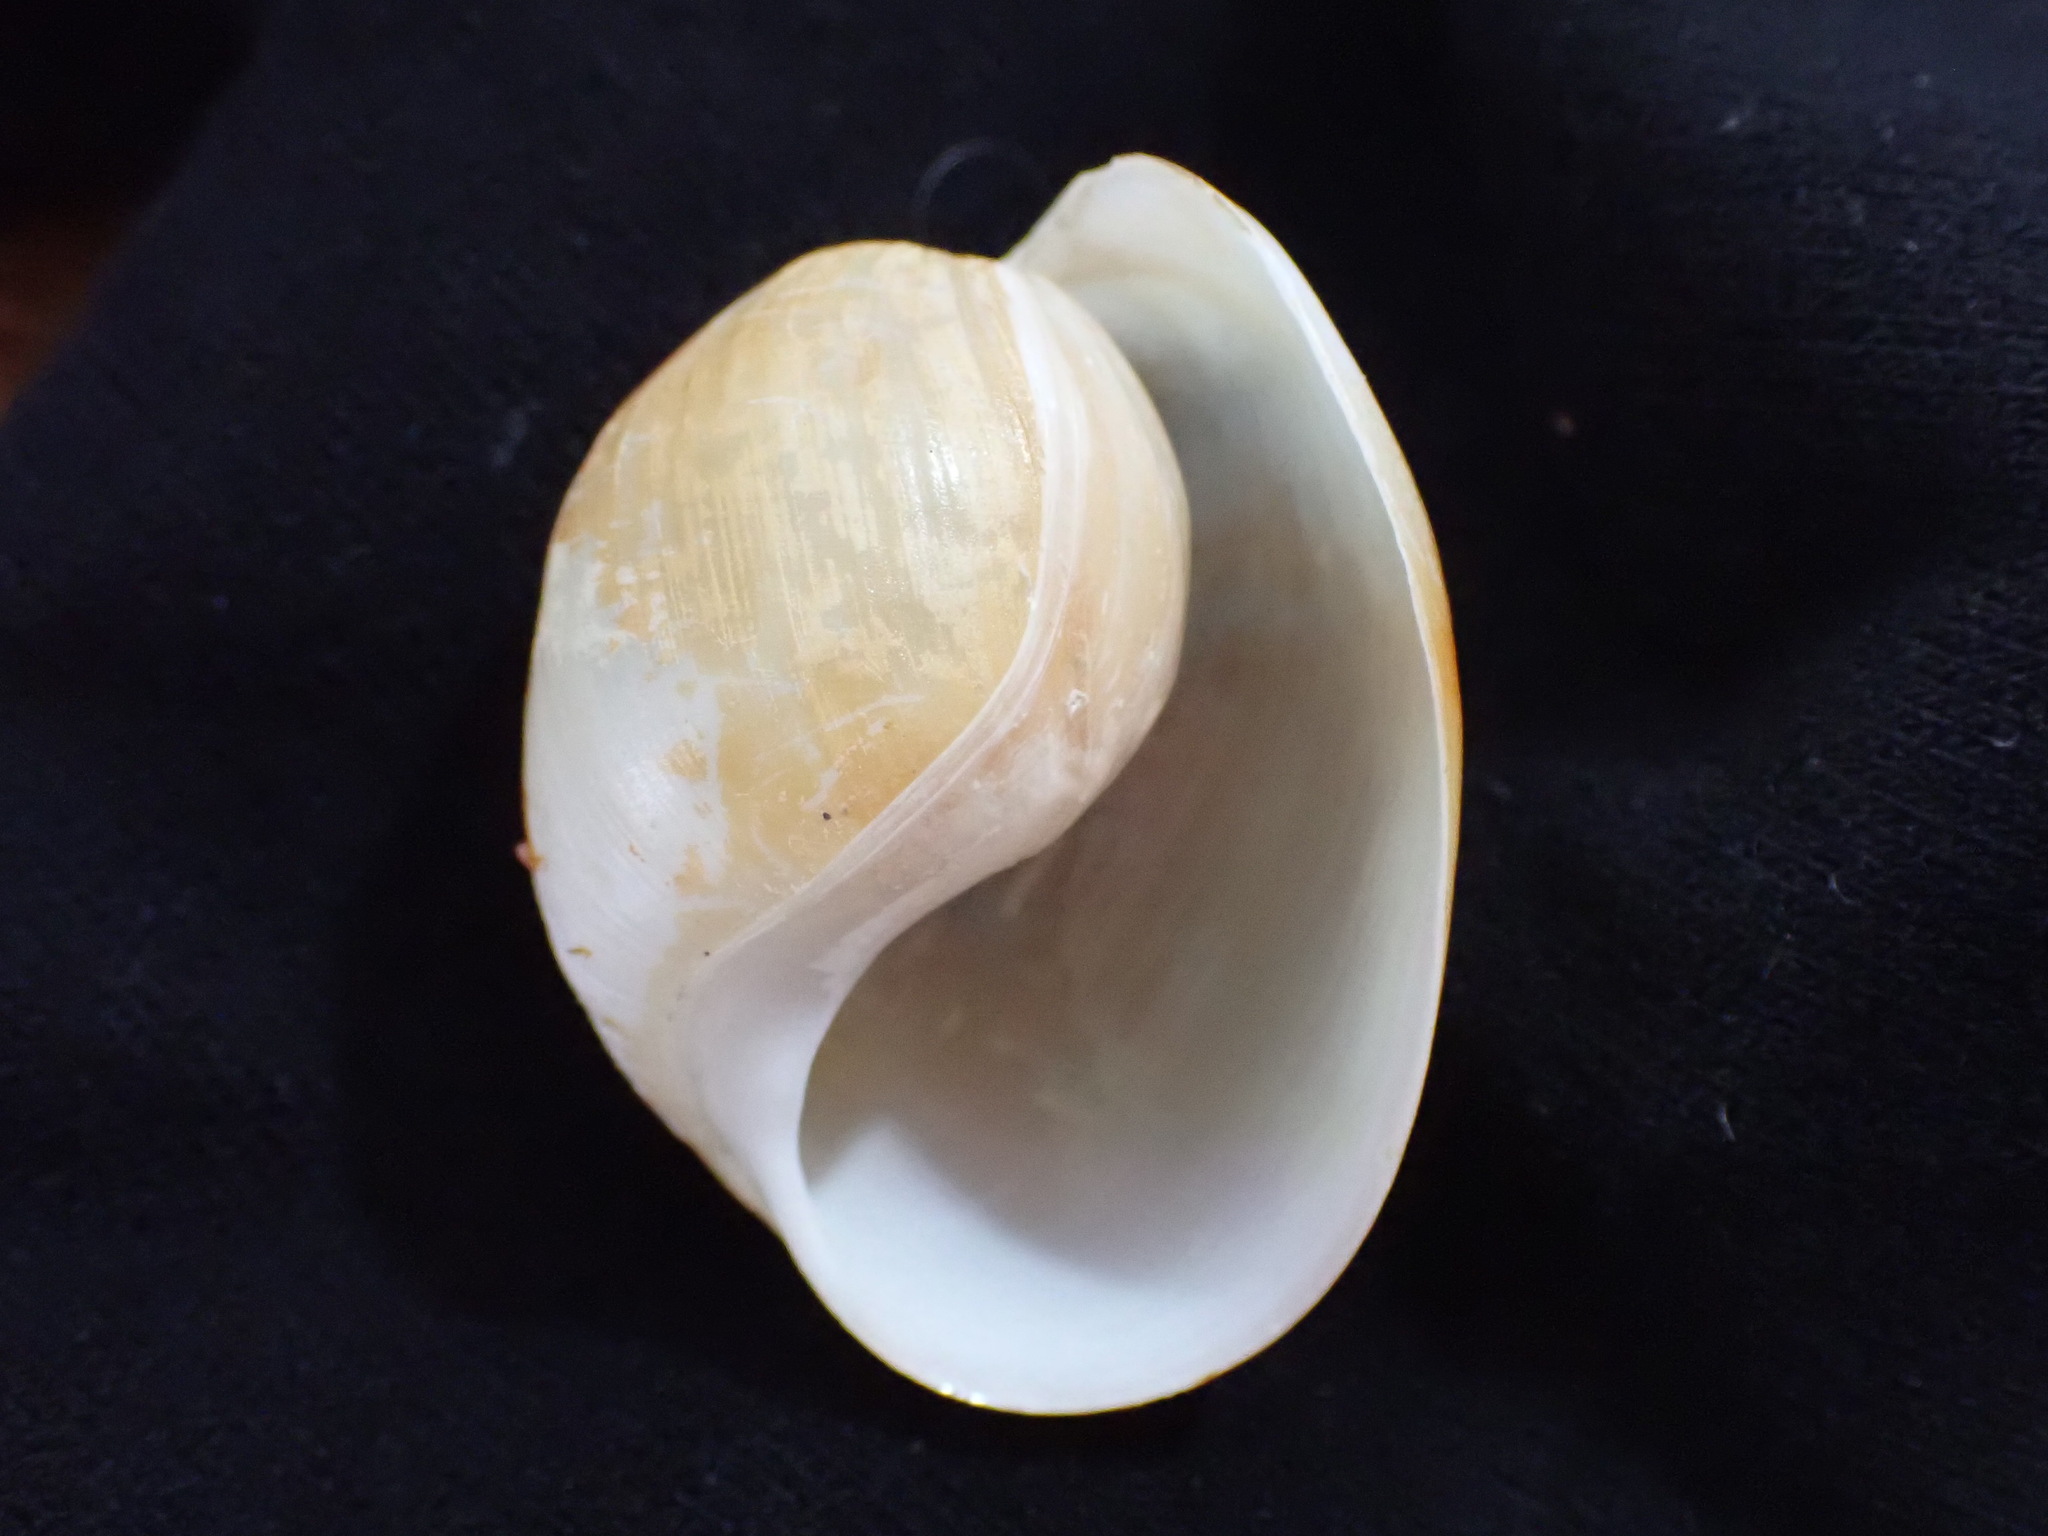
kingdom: Animalia
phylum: Mollusca
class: Gastropoda
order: Cephalaspidea
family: Haminoeidae
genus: Papawera
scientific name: Papawera zelandiae
